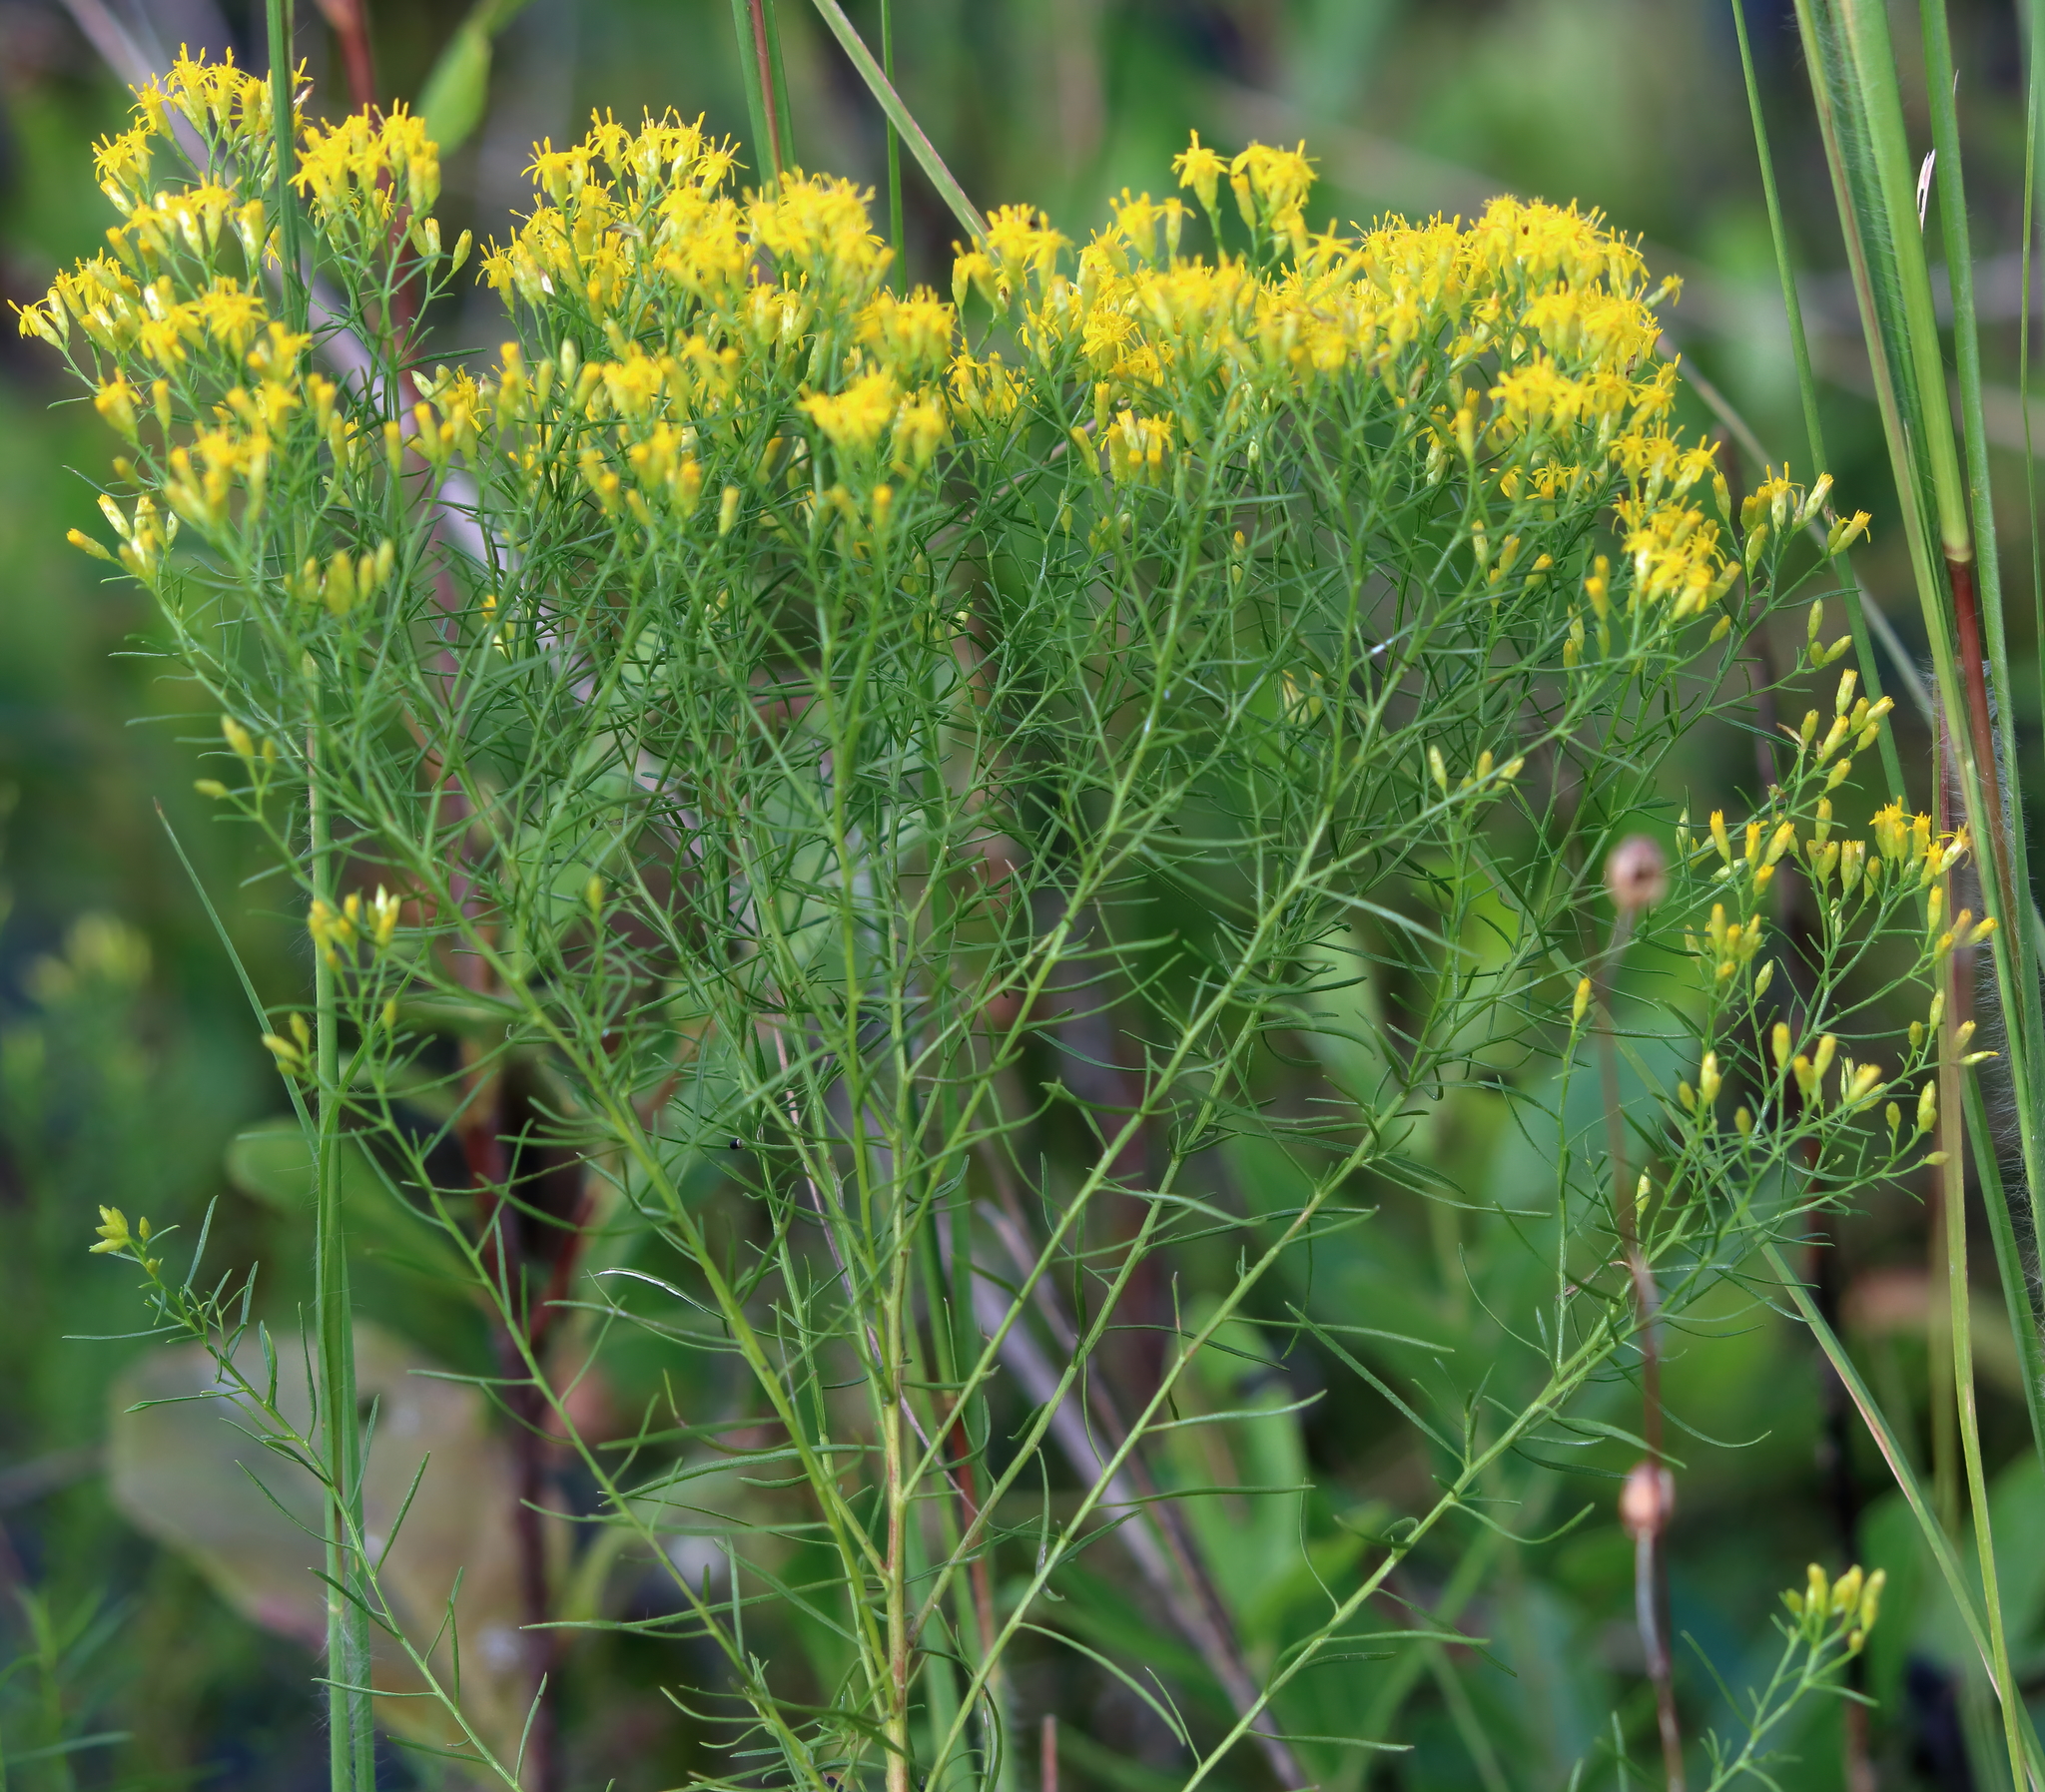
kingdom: Plantae
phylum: Tracheophyta
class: Magnoliopsida
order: Asterales
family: Asteraceae
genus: Euthamia
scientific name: Euthamia caroliniana
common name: Coastal plain goldentop
